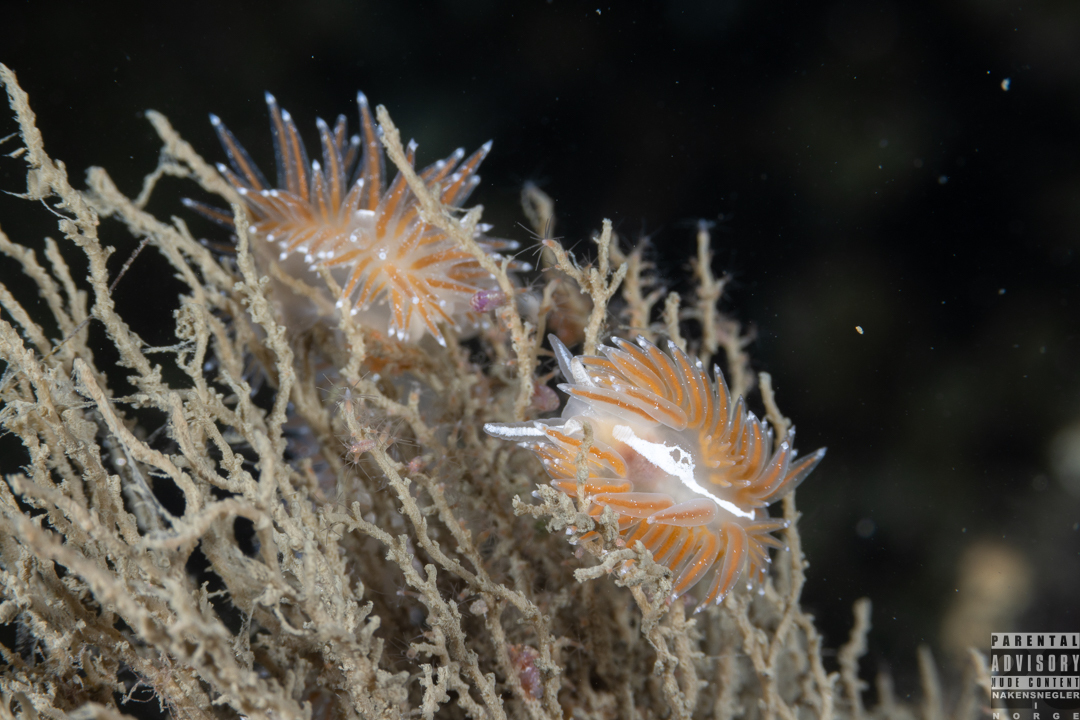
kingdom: Animalia
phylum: Mollusca
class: Gastropoda
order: Nudibranchia
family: Coryphellidae
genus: Coryphella
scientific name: Coryphella monicae
